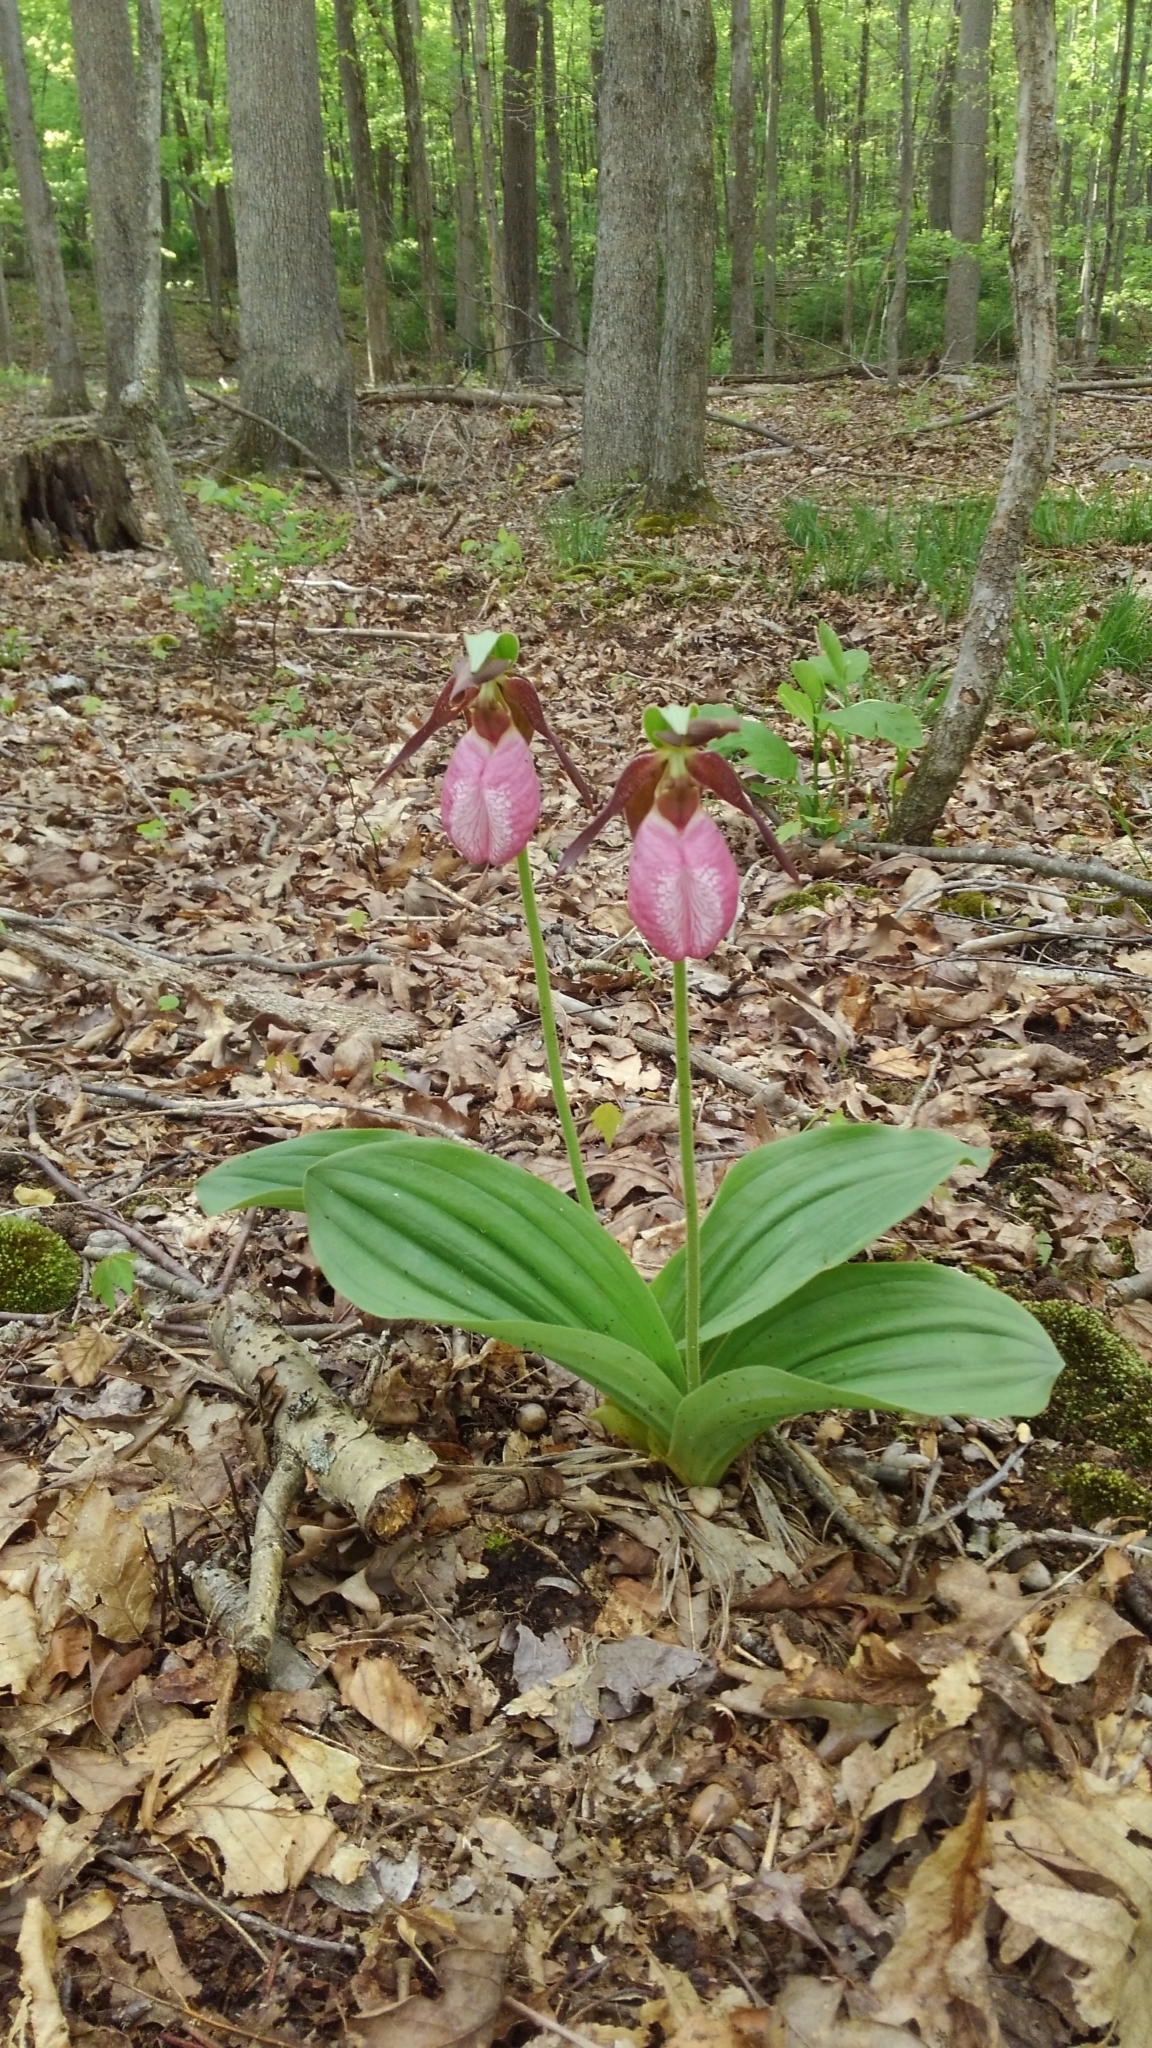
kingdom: Plantae
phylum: Tracheophyta
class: Liliopsida
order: Asparagales
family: Orchidaceae
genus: Cypripedium
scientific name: Cypripedium acaule
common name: Pink lady's-slipper
